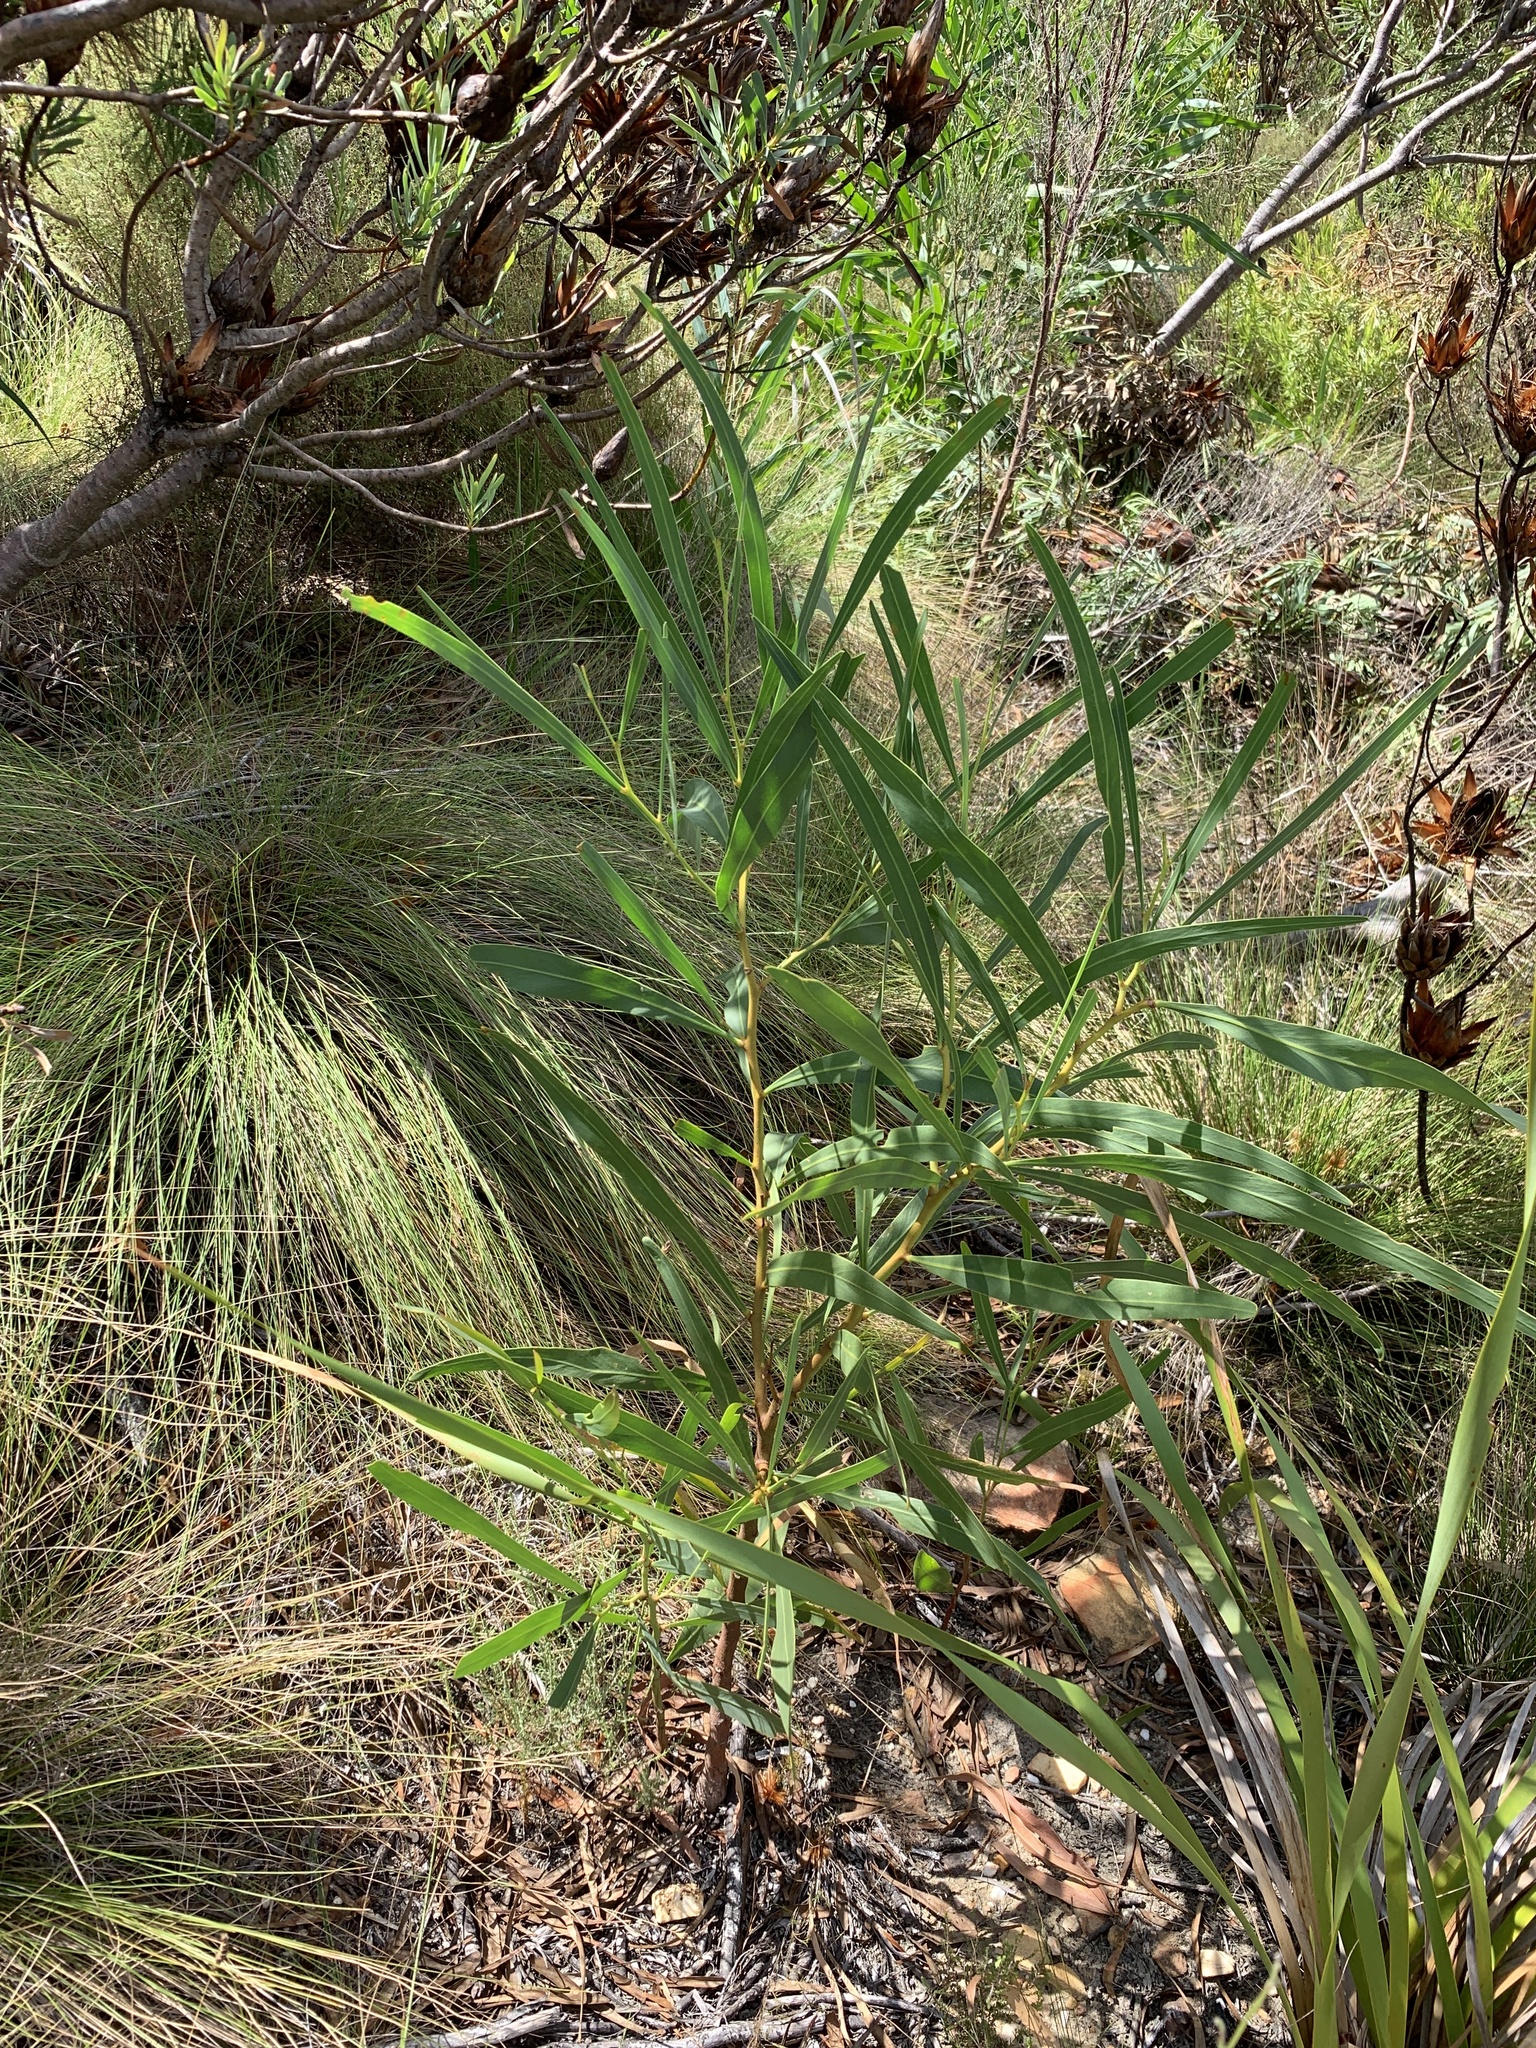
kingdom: Plantae
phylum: Tracheophyta
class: Magnoliopsida
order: Fabales
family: Fabaceae
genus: Acacia
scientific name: Acacia saligna
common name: Orange wattle
